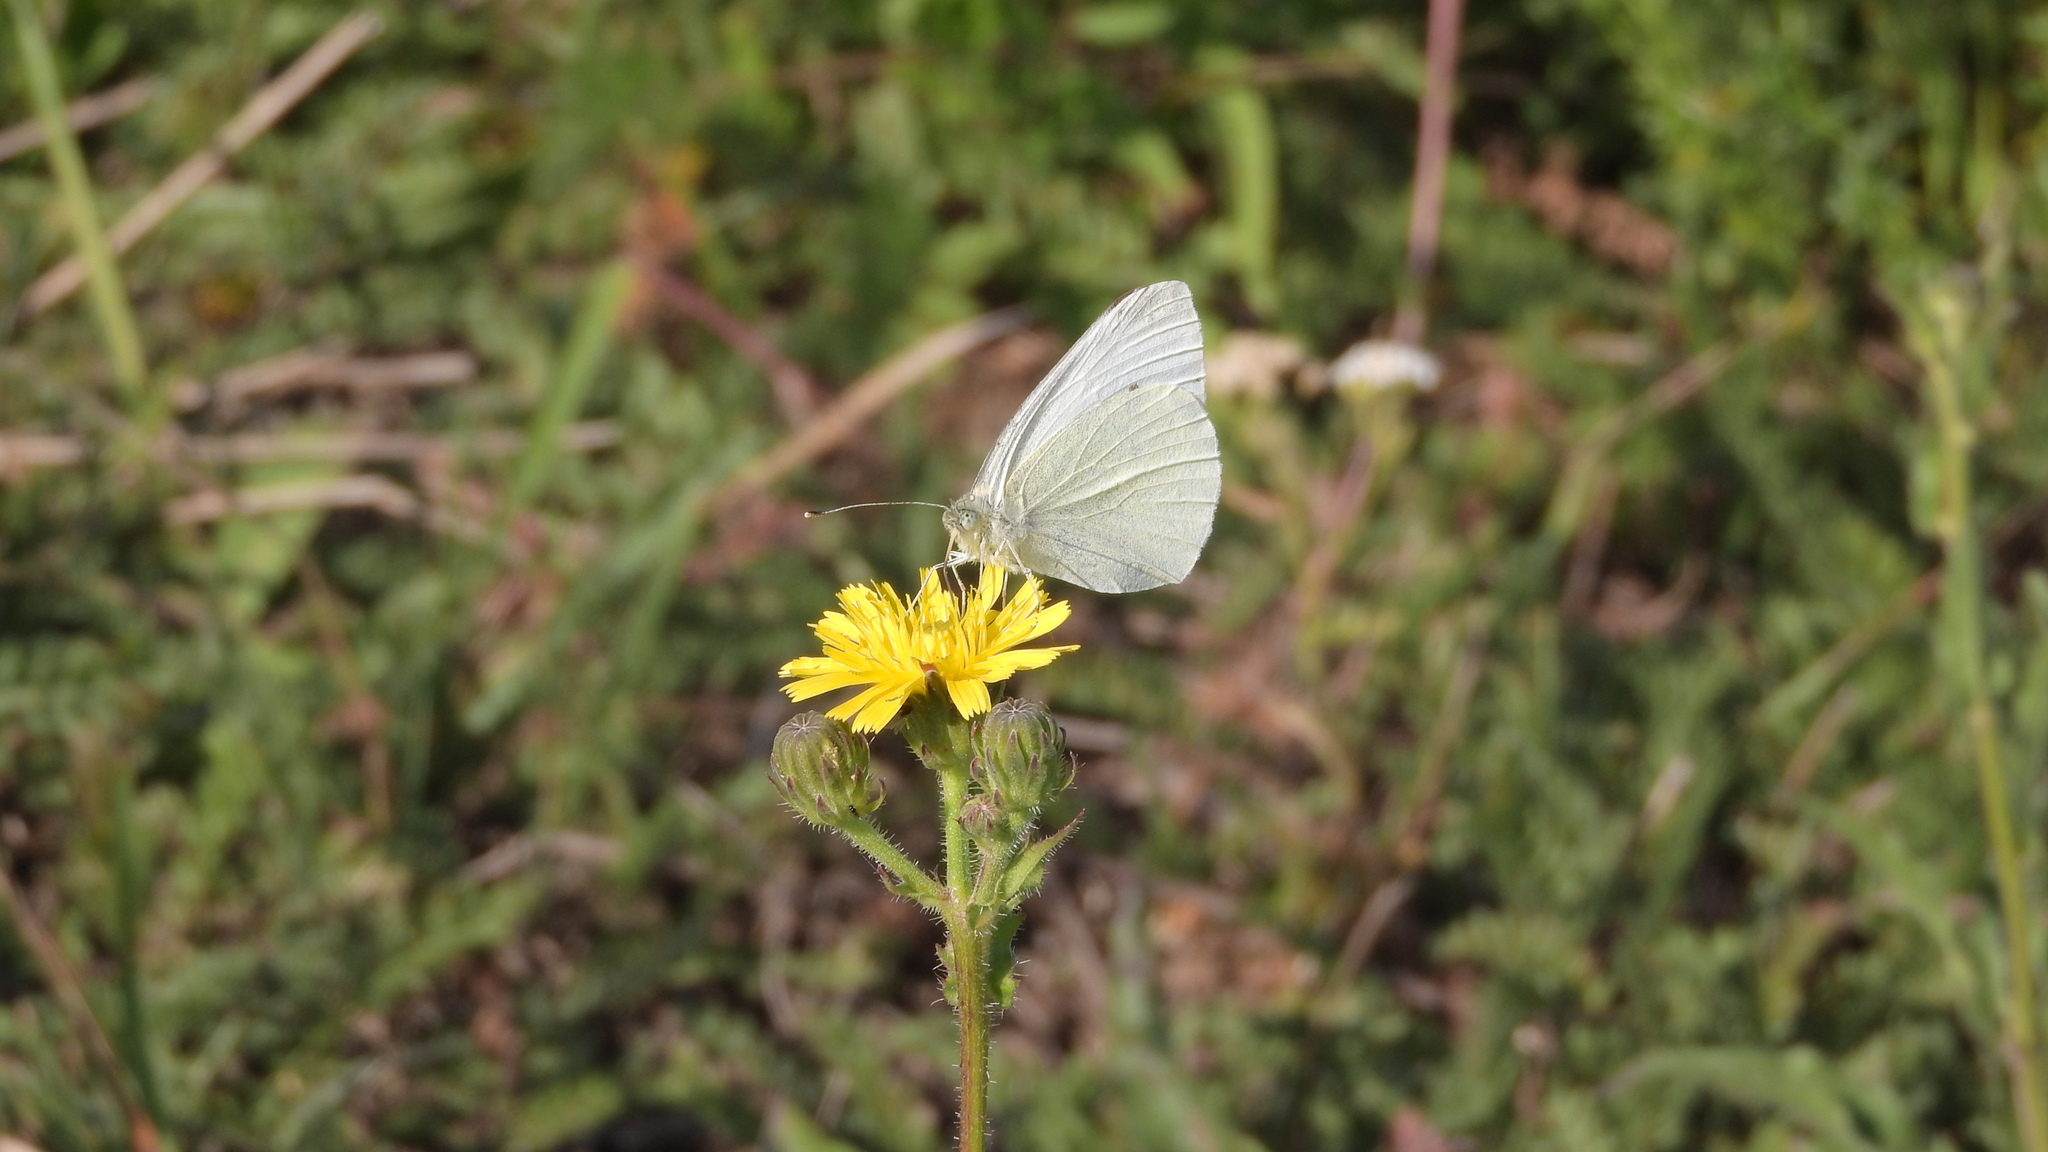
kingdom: Animalia
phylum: Arthropoda
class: Insecta
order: Lepidoptera
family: Pieridae
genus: Pieris
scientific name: Pieris rapae
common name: Small white
